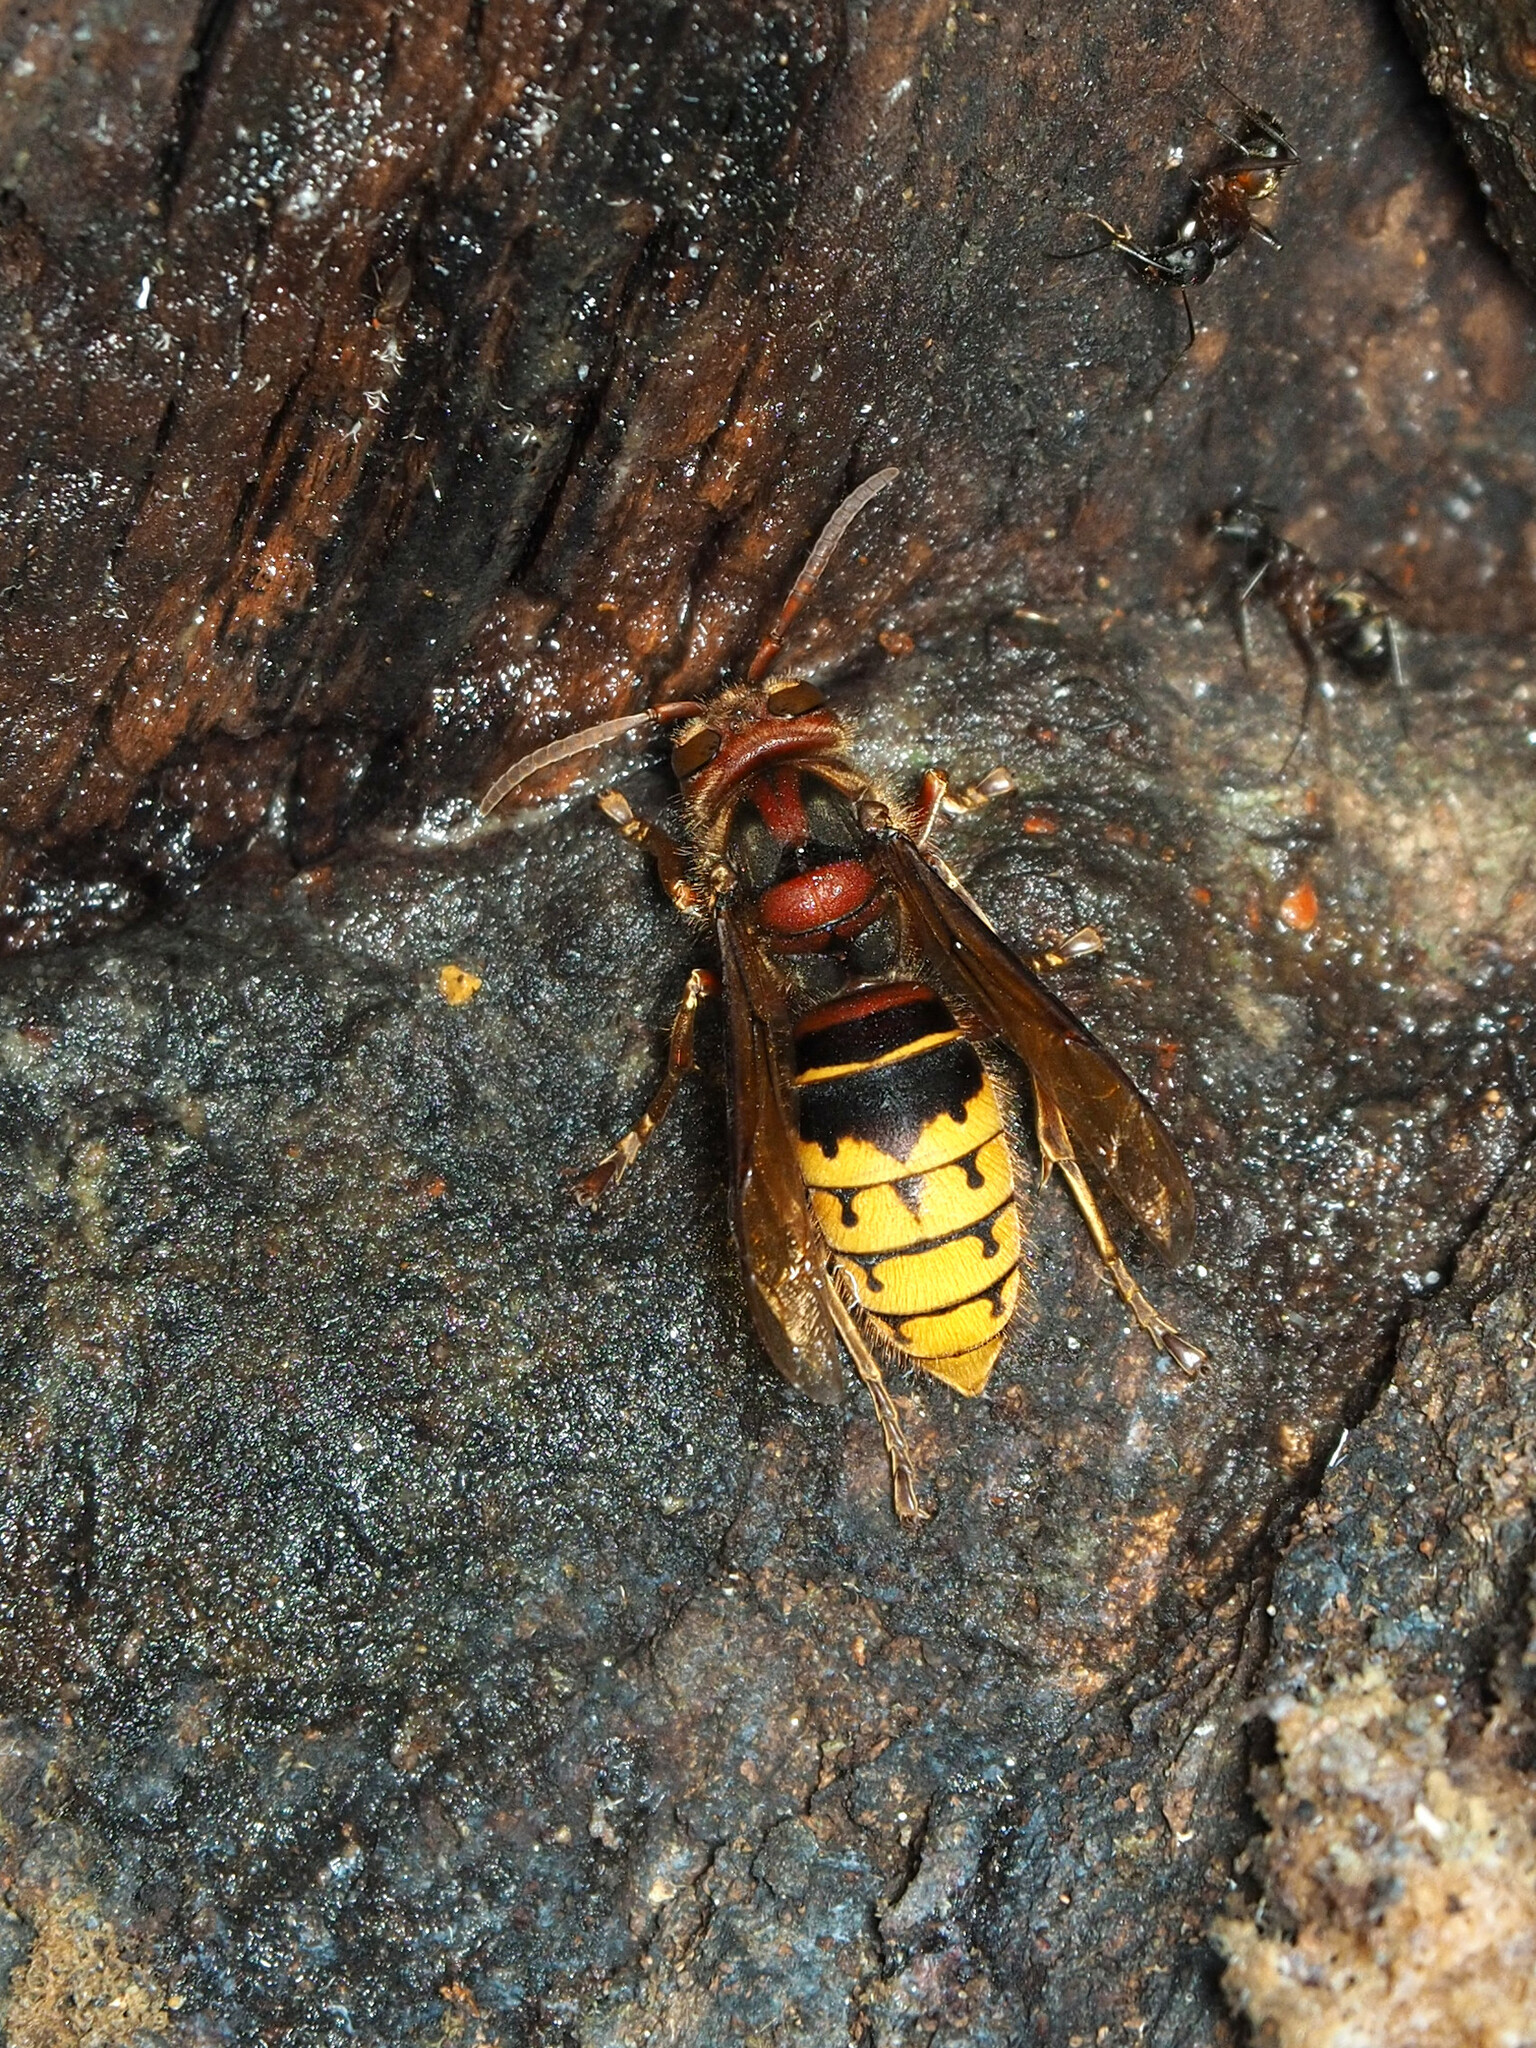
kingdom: Animalia
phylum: Arthropoda
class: Insecta
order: Hymenoptera
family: Vespidae
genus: Vespa
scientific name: Vespa crabro
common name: Hornet
